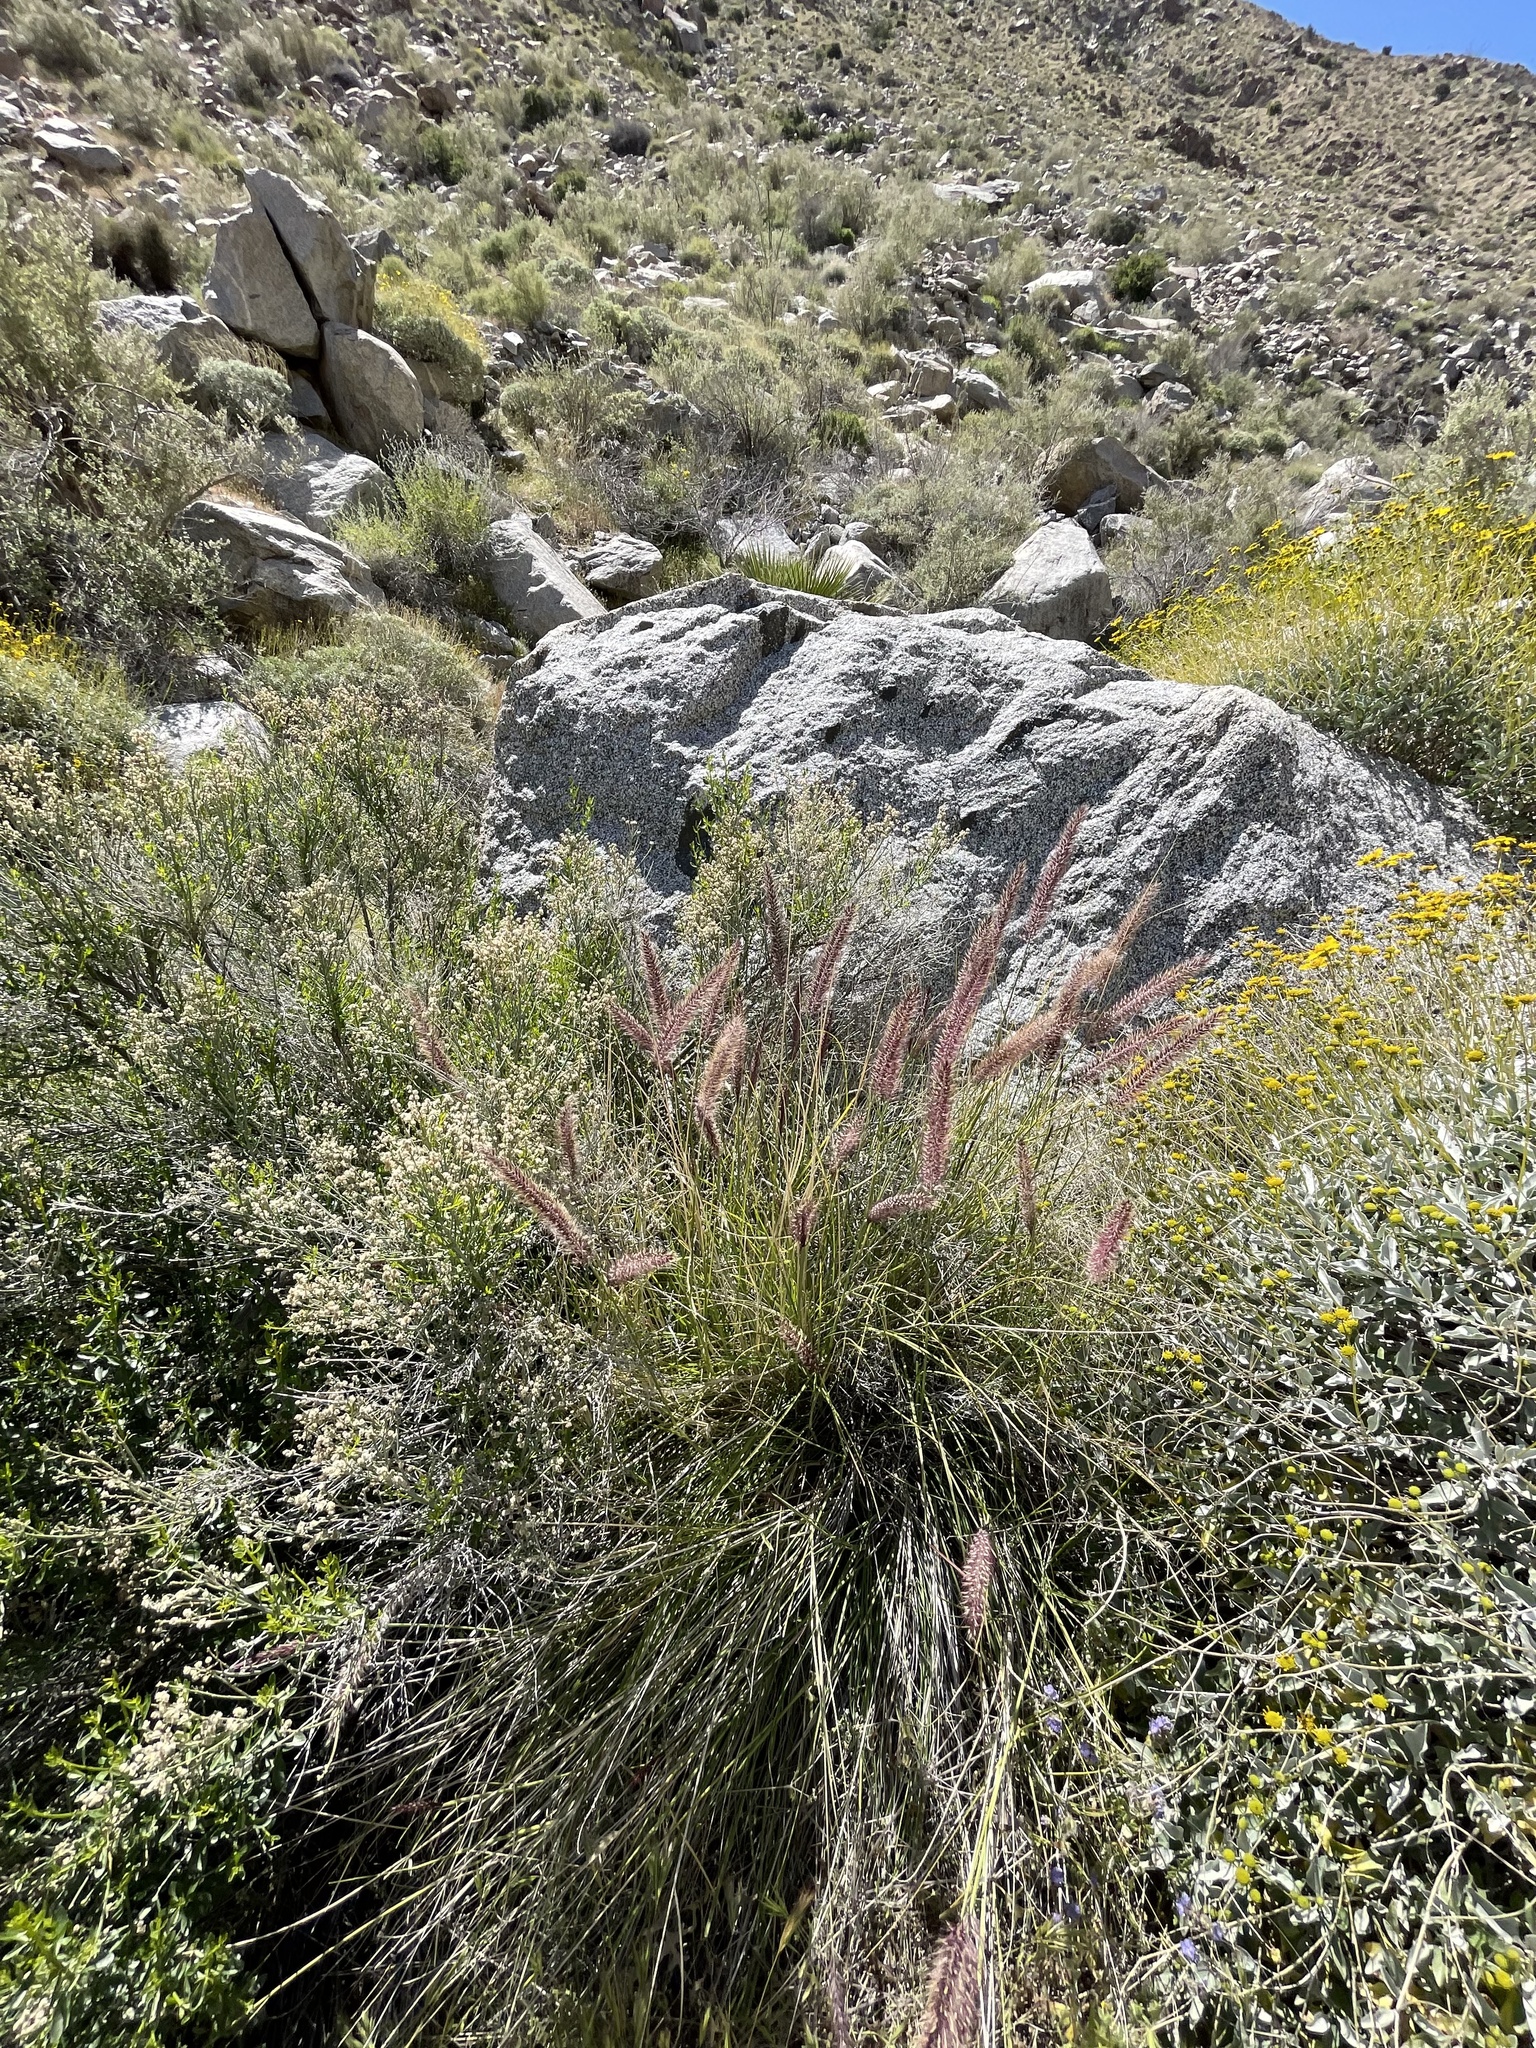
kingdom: Plantae
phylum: Tracheophyta
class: Liliopsida
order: Poales
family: Poaceae
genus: Cenchrus
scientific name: Cenchrus setaceus
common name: Crimson fountaingrass
